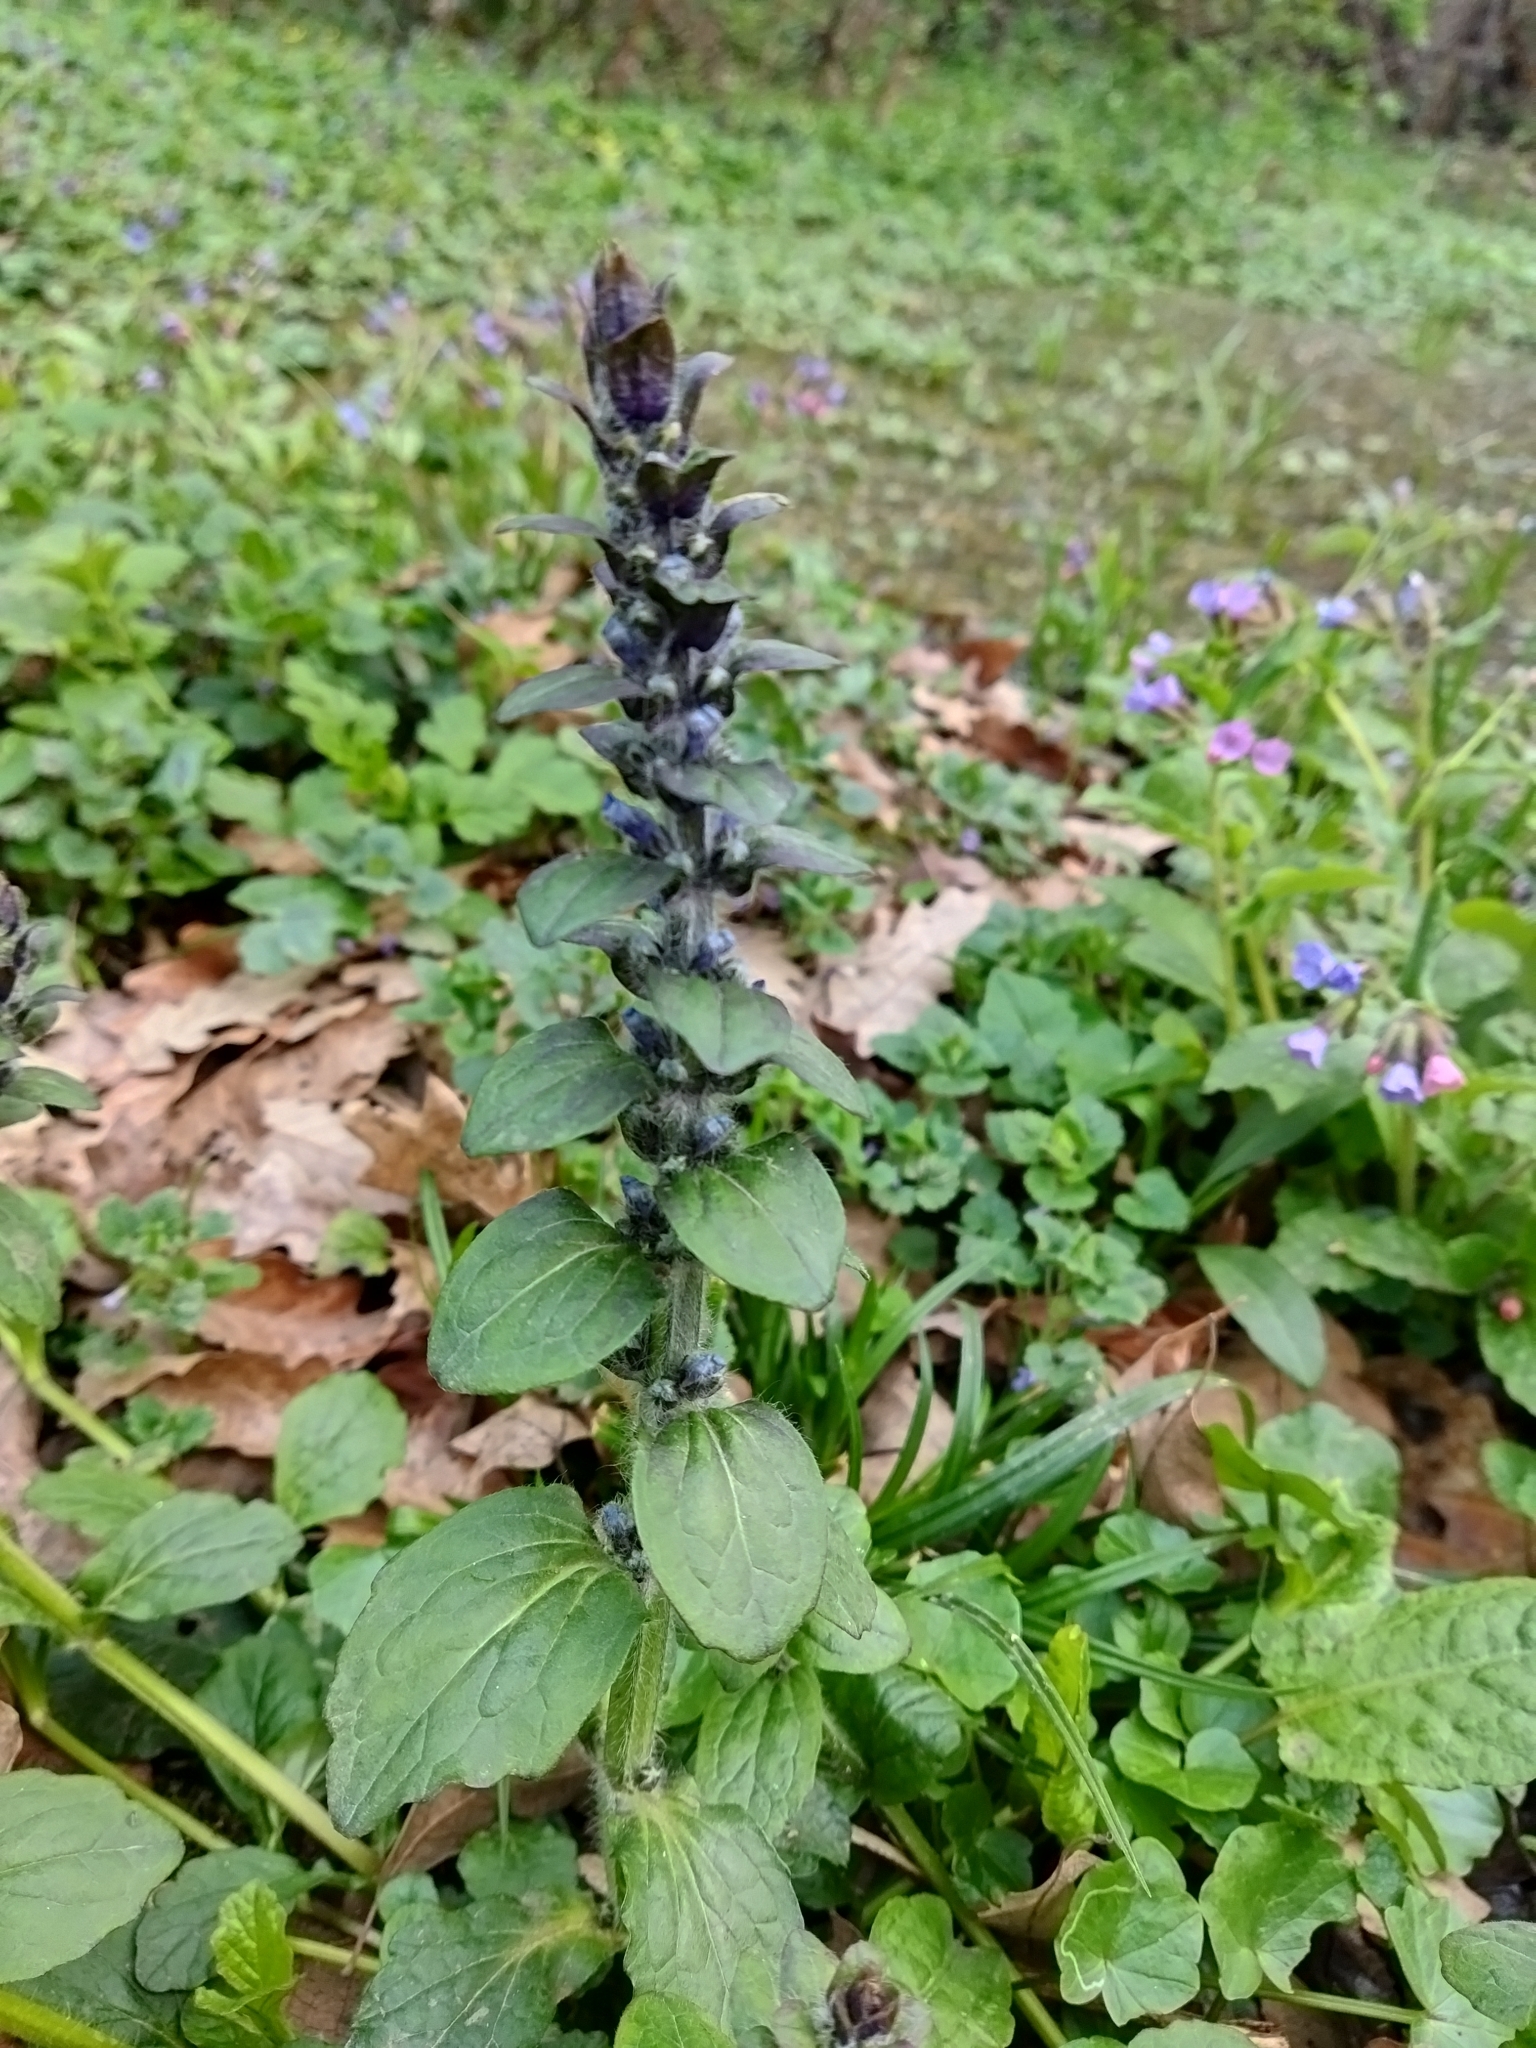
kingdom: Plantae
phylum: Tracheophyta
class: Magnoliopsida
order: Lamiales
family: Lamiaceae
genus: Ajuga
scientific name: Ajuga reptans
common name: Bugle
